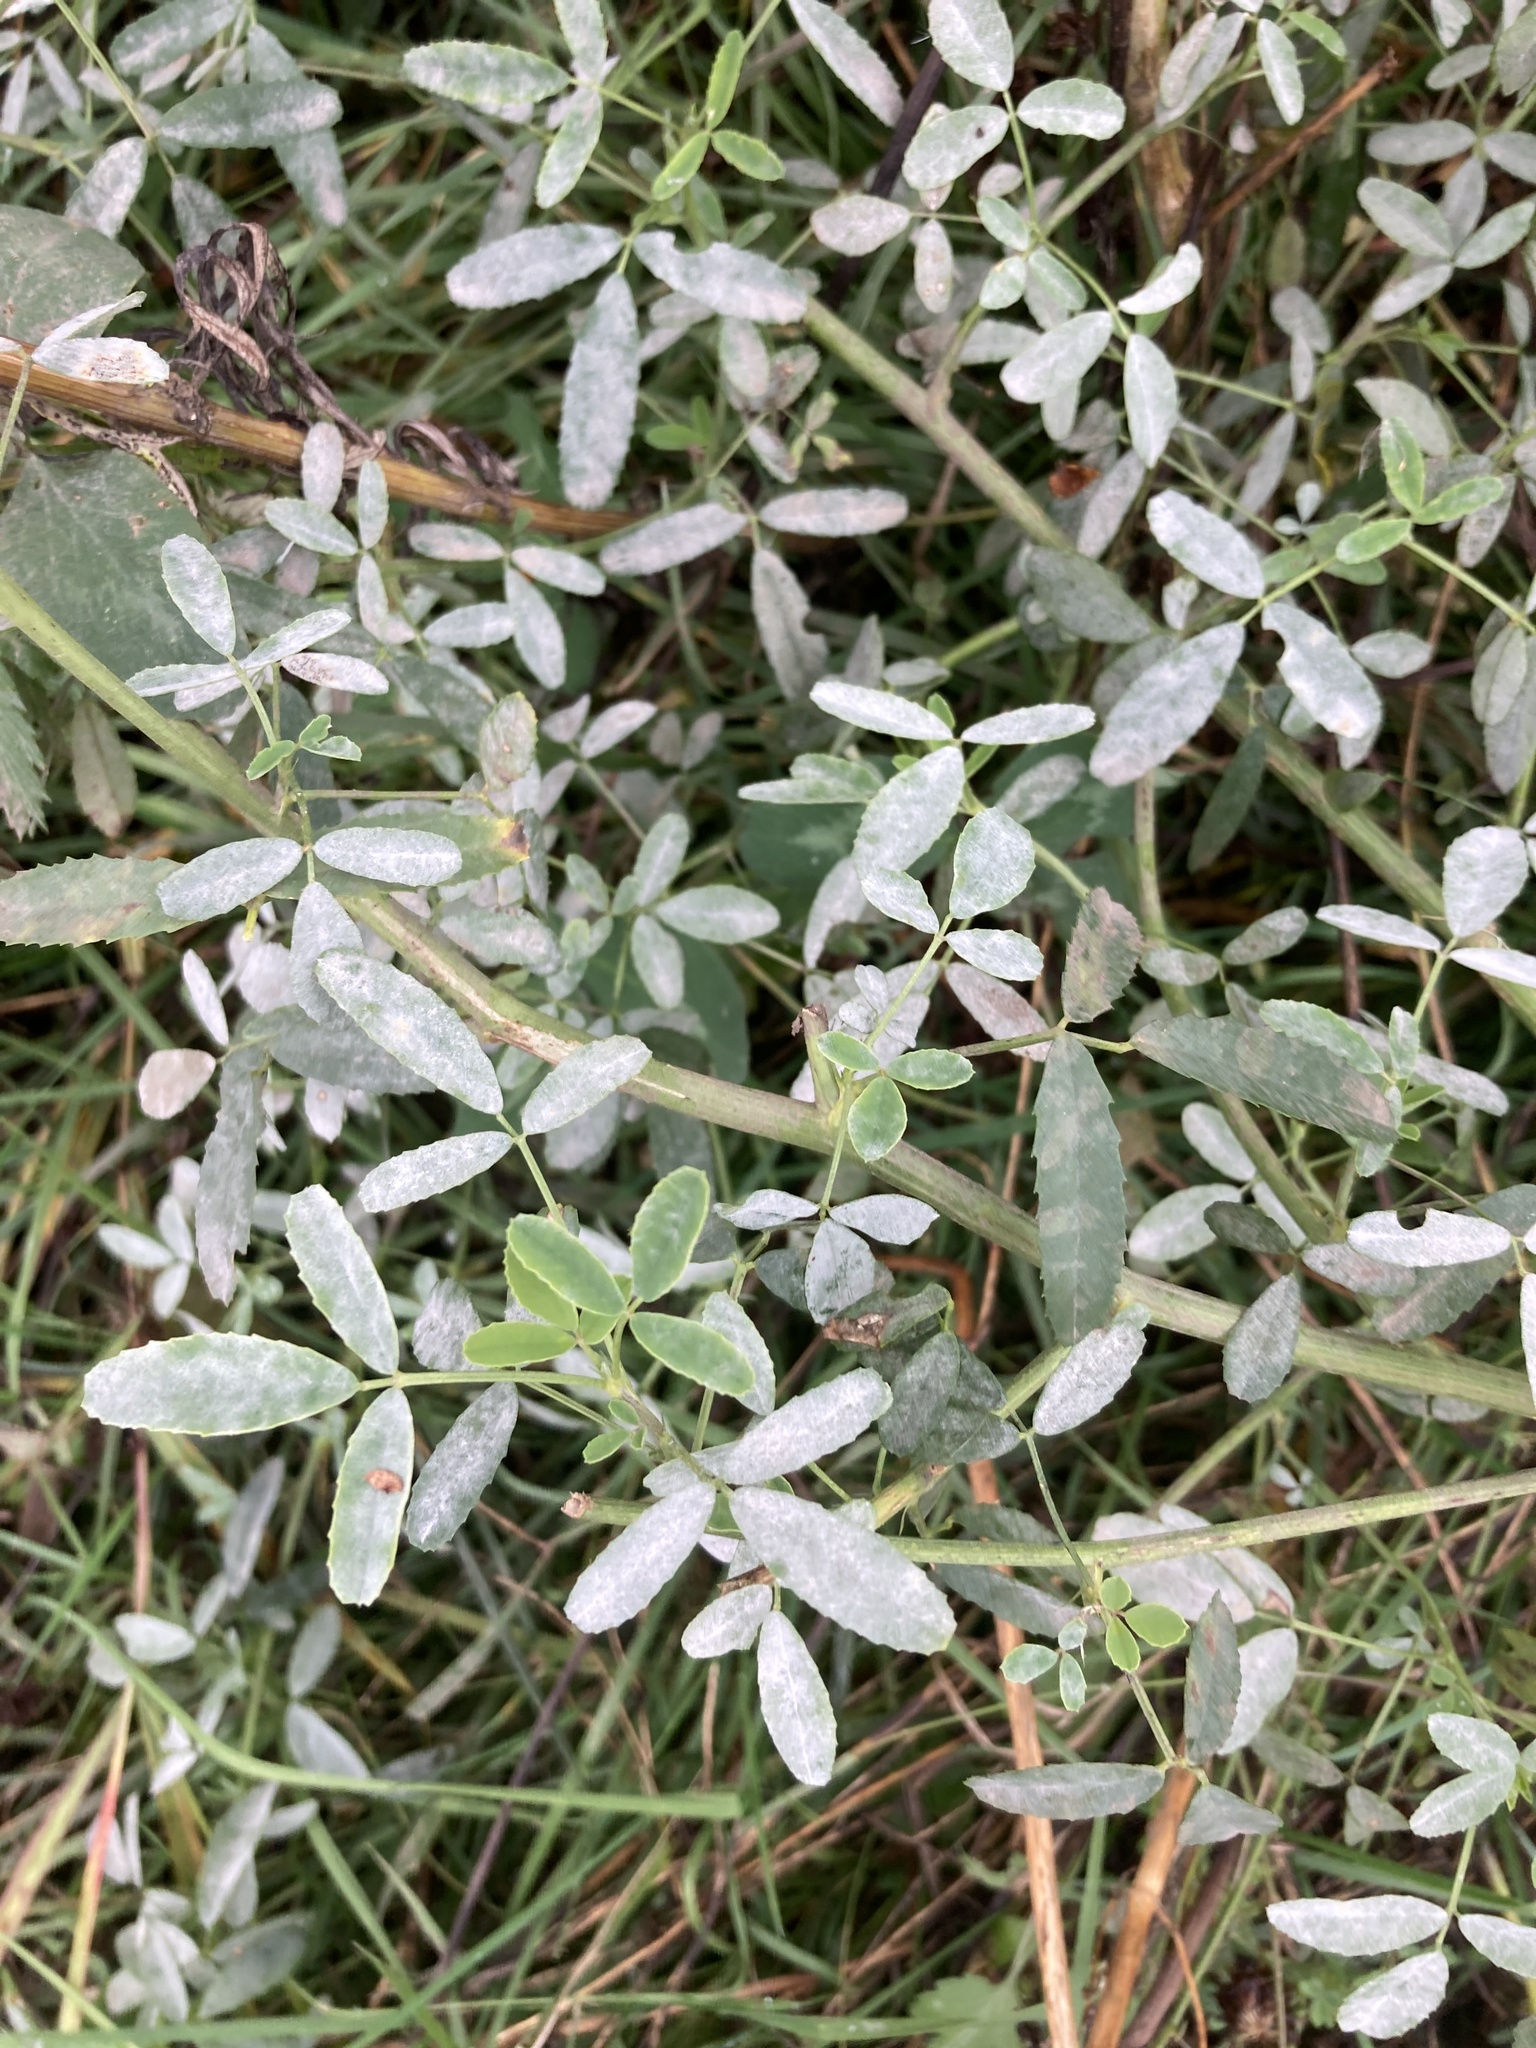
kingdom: Plantae
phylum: Tracheophyta
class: Magnoliopsida
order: Fabales
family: Fabaceae
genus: Melilotus
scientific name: Melilotus albus
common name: White melilot
